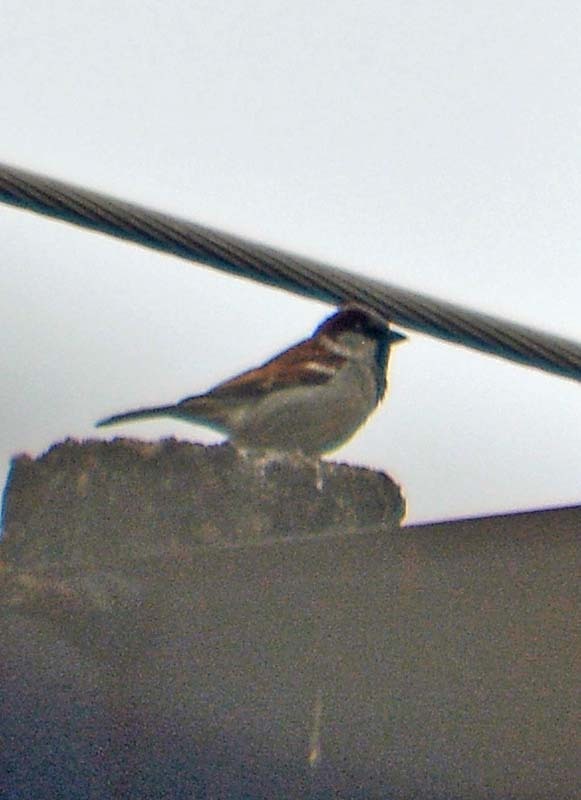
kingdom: Animalia
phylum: Chordata
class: Aves
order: Passeriformes
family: Passeridae
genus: Passer
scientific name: Passer domesticus
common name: House sparrow
